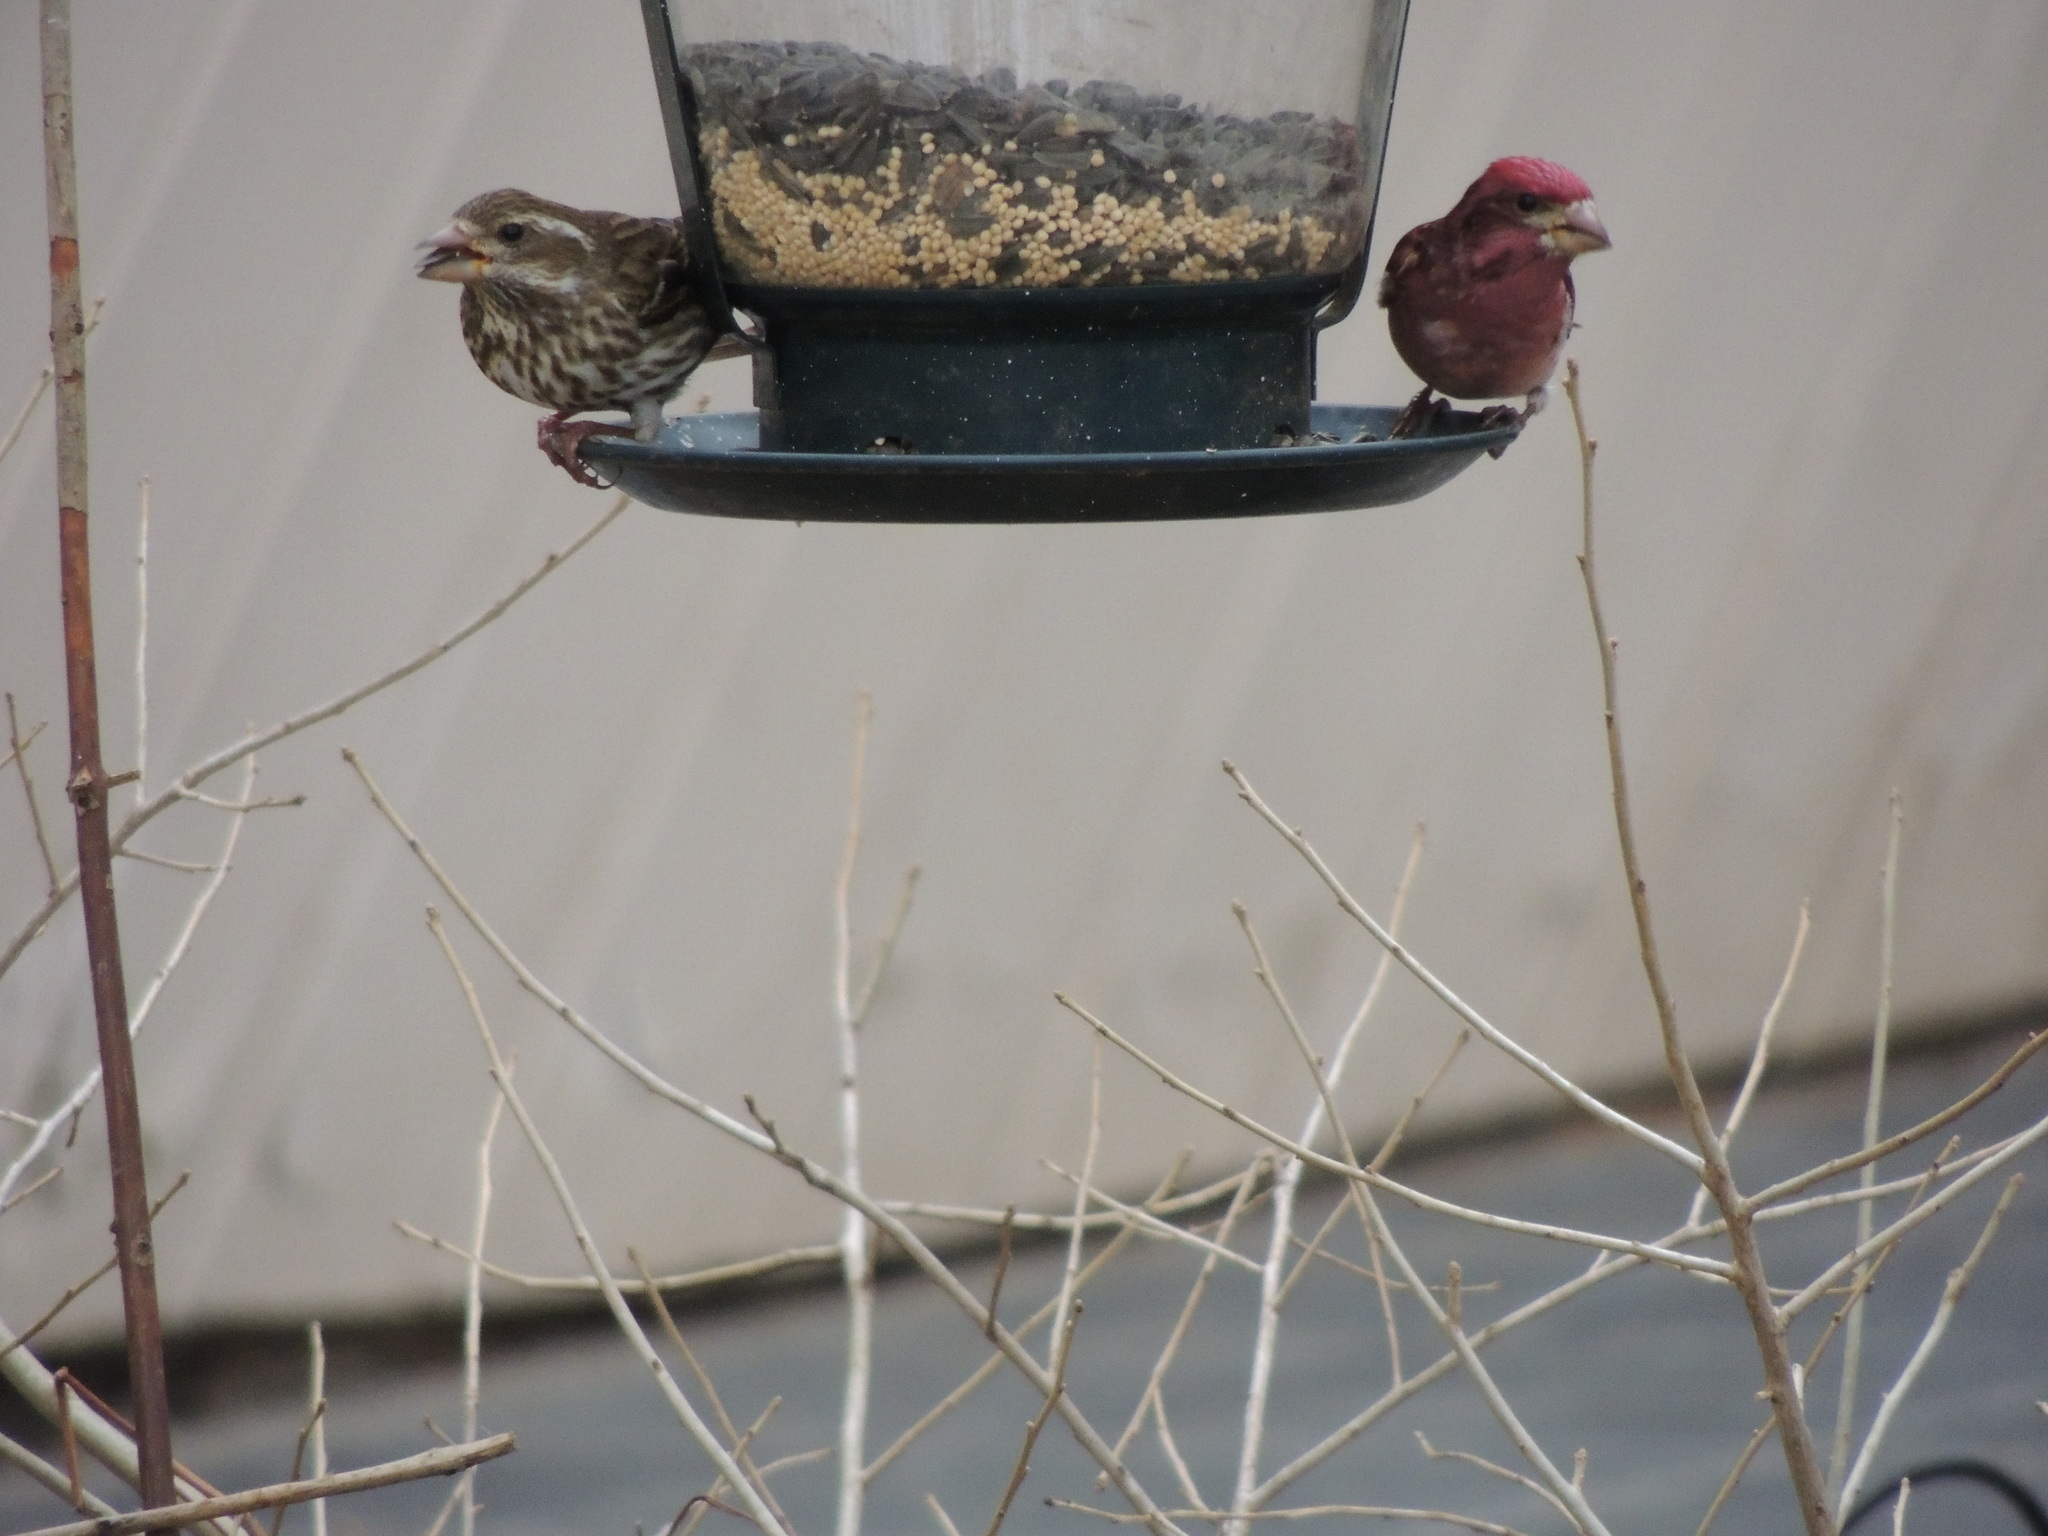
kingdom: Animalia
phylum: Chordata
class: Aves
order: Passeriformes
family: Fringillidae
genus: Haemorhous
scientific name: Haemorhous purpureus
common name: Purple finch
